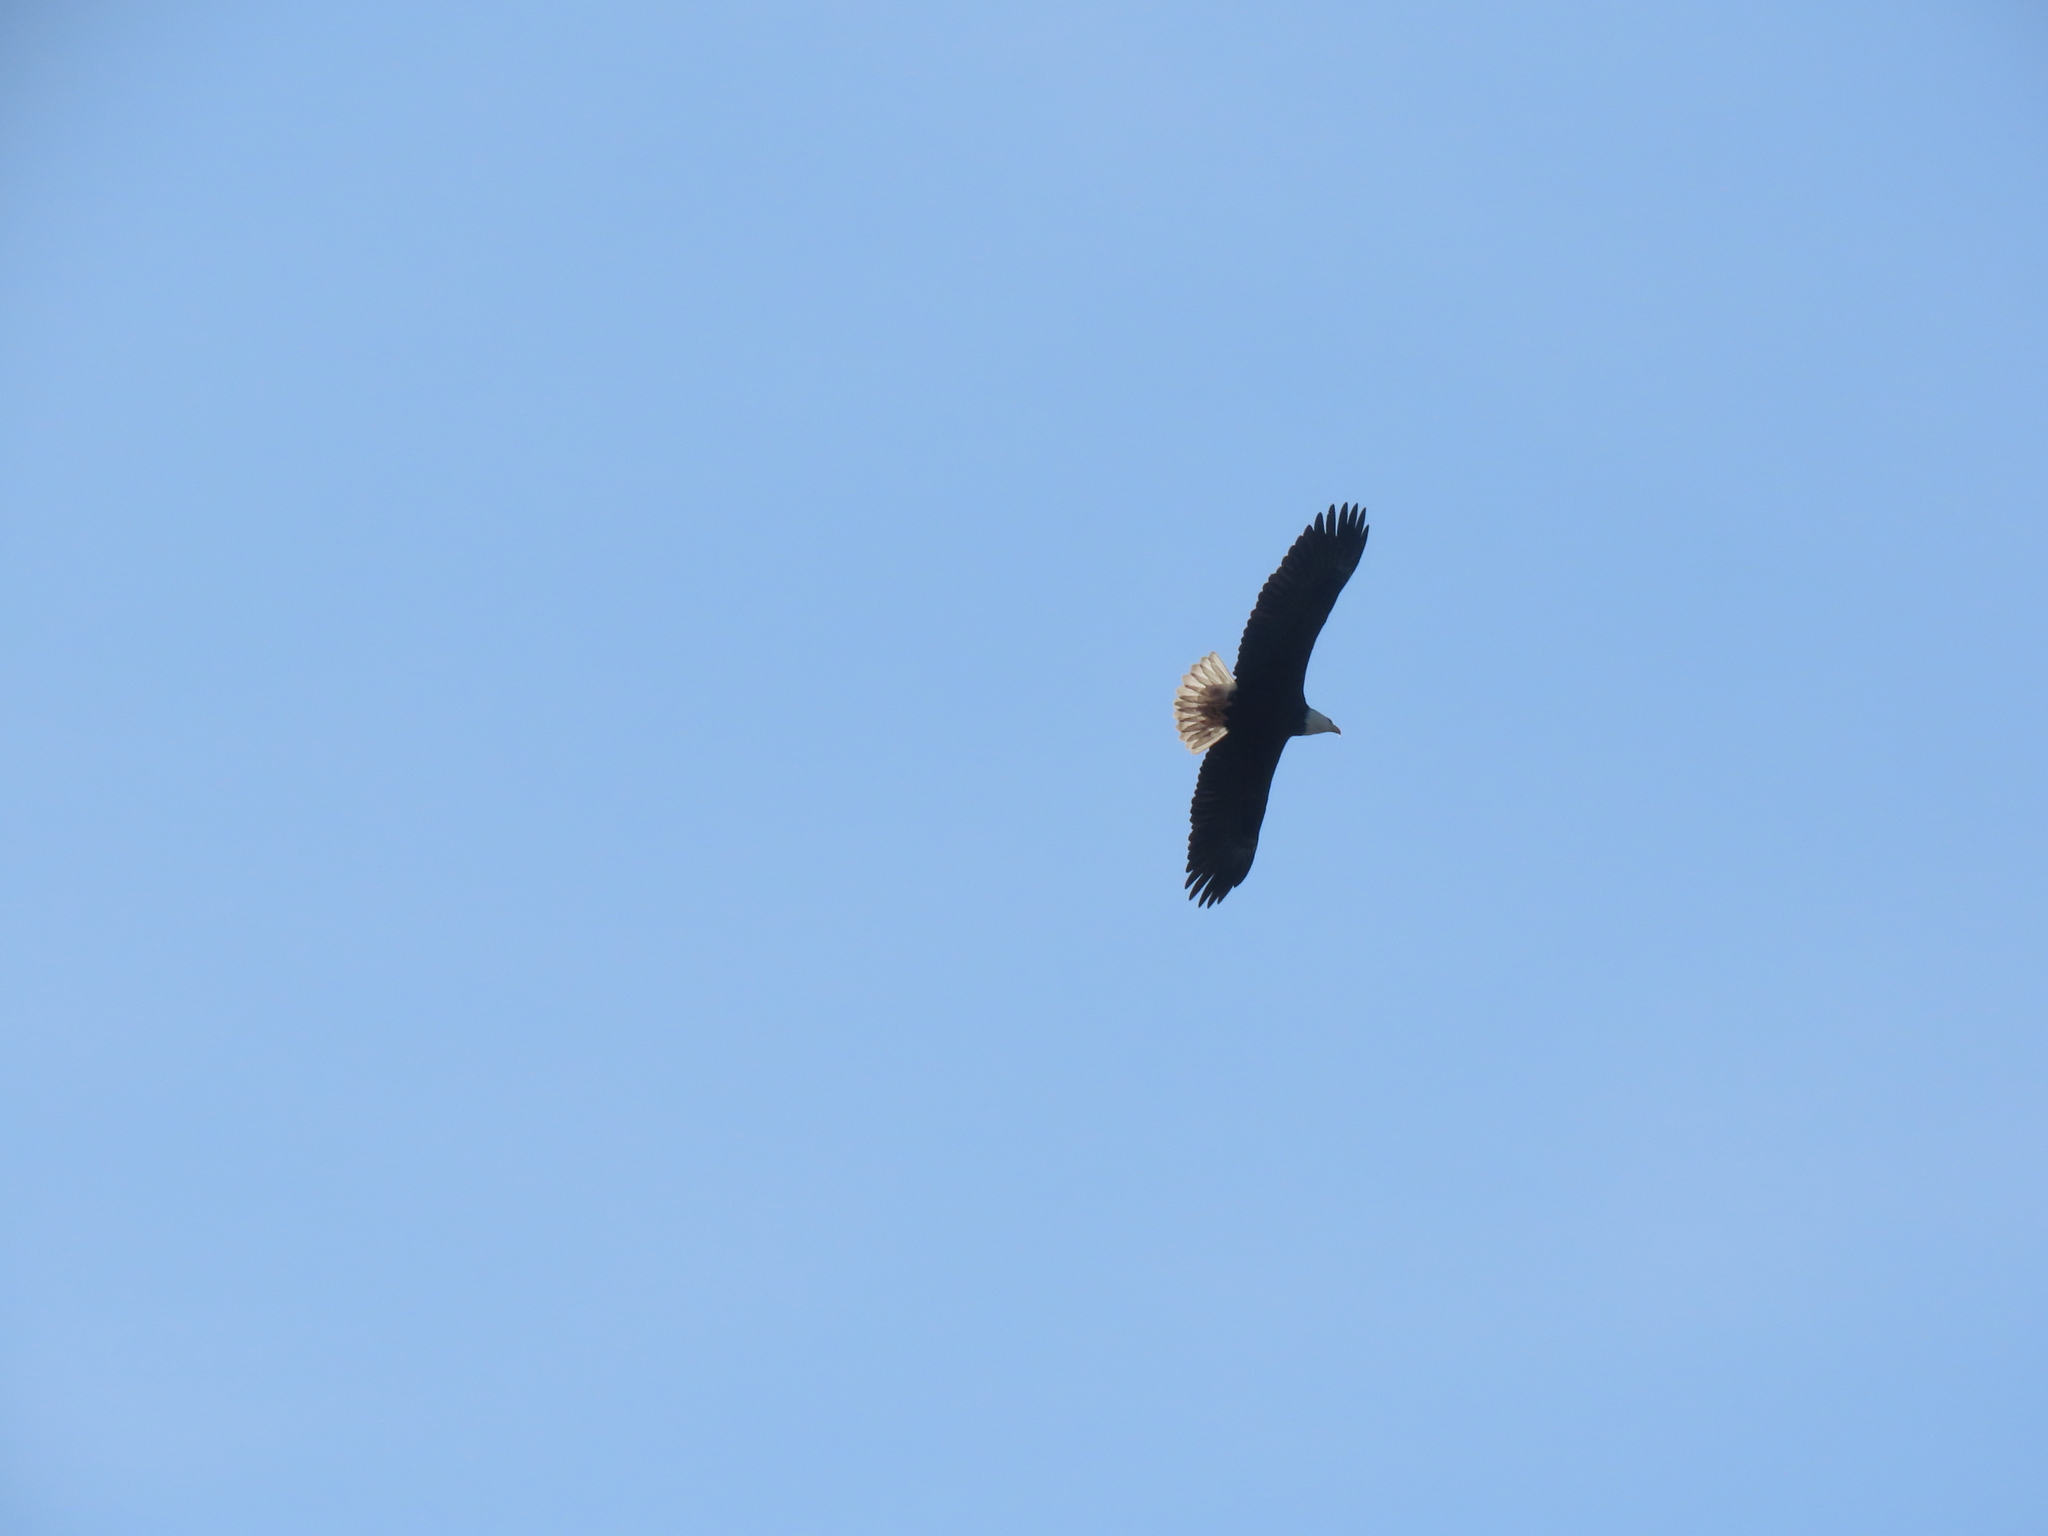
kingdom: Animalia
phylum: Chordata
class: Aves
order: Accipitriformes
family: Accipitridae
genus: Haliaeetus
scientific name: Haliaeetus leucocephalus
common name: Bald eagle
